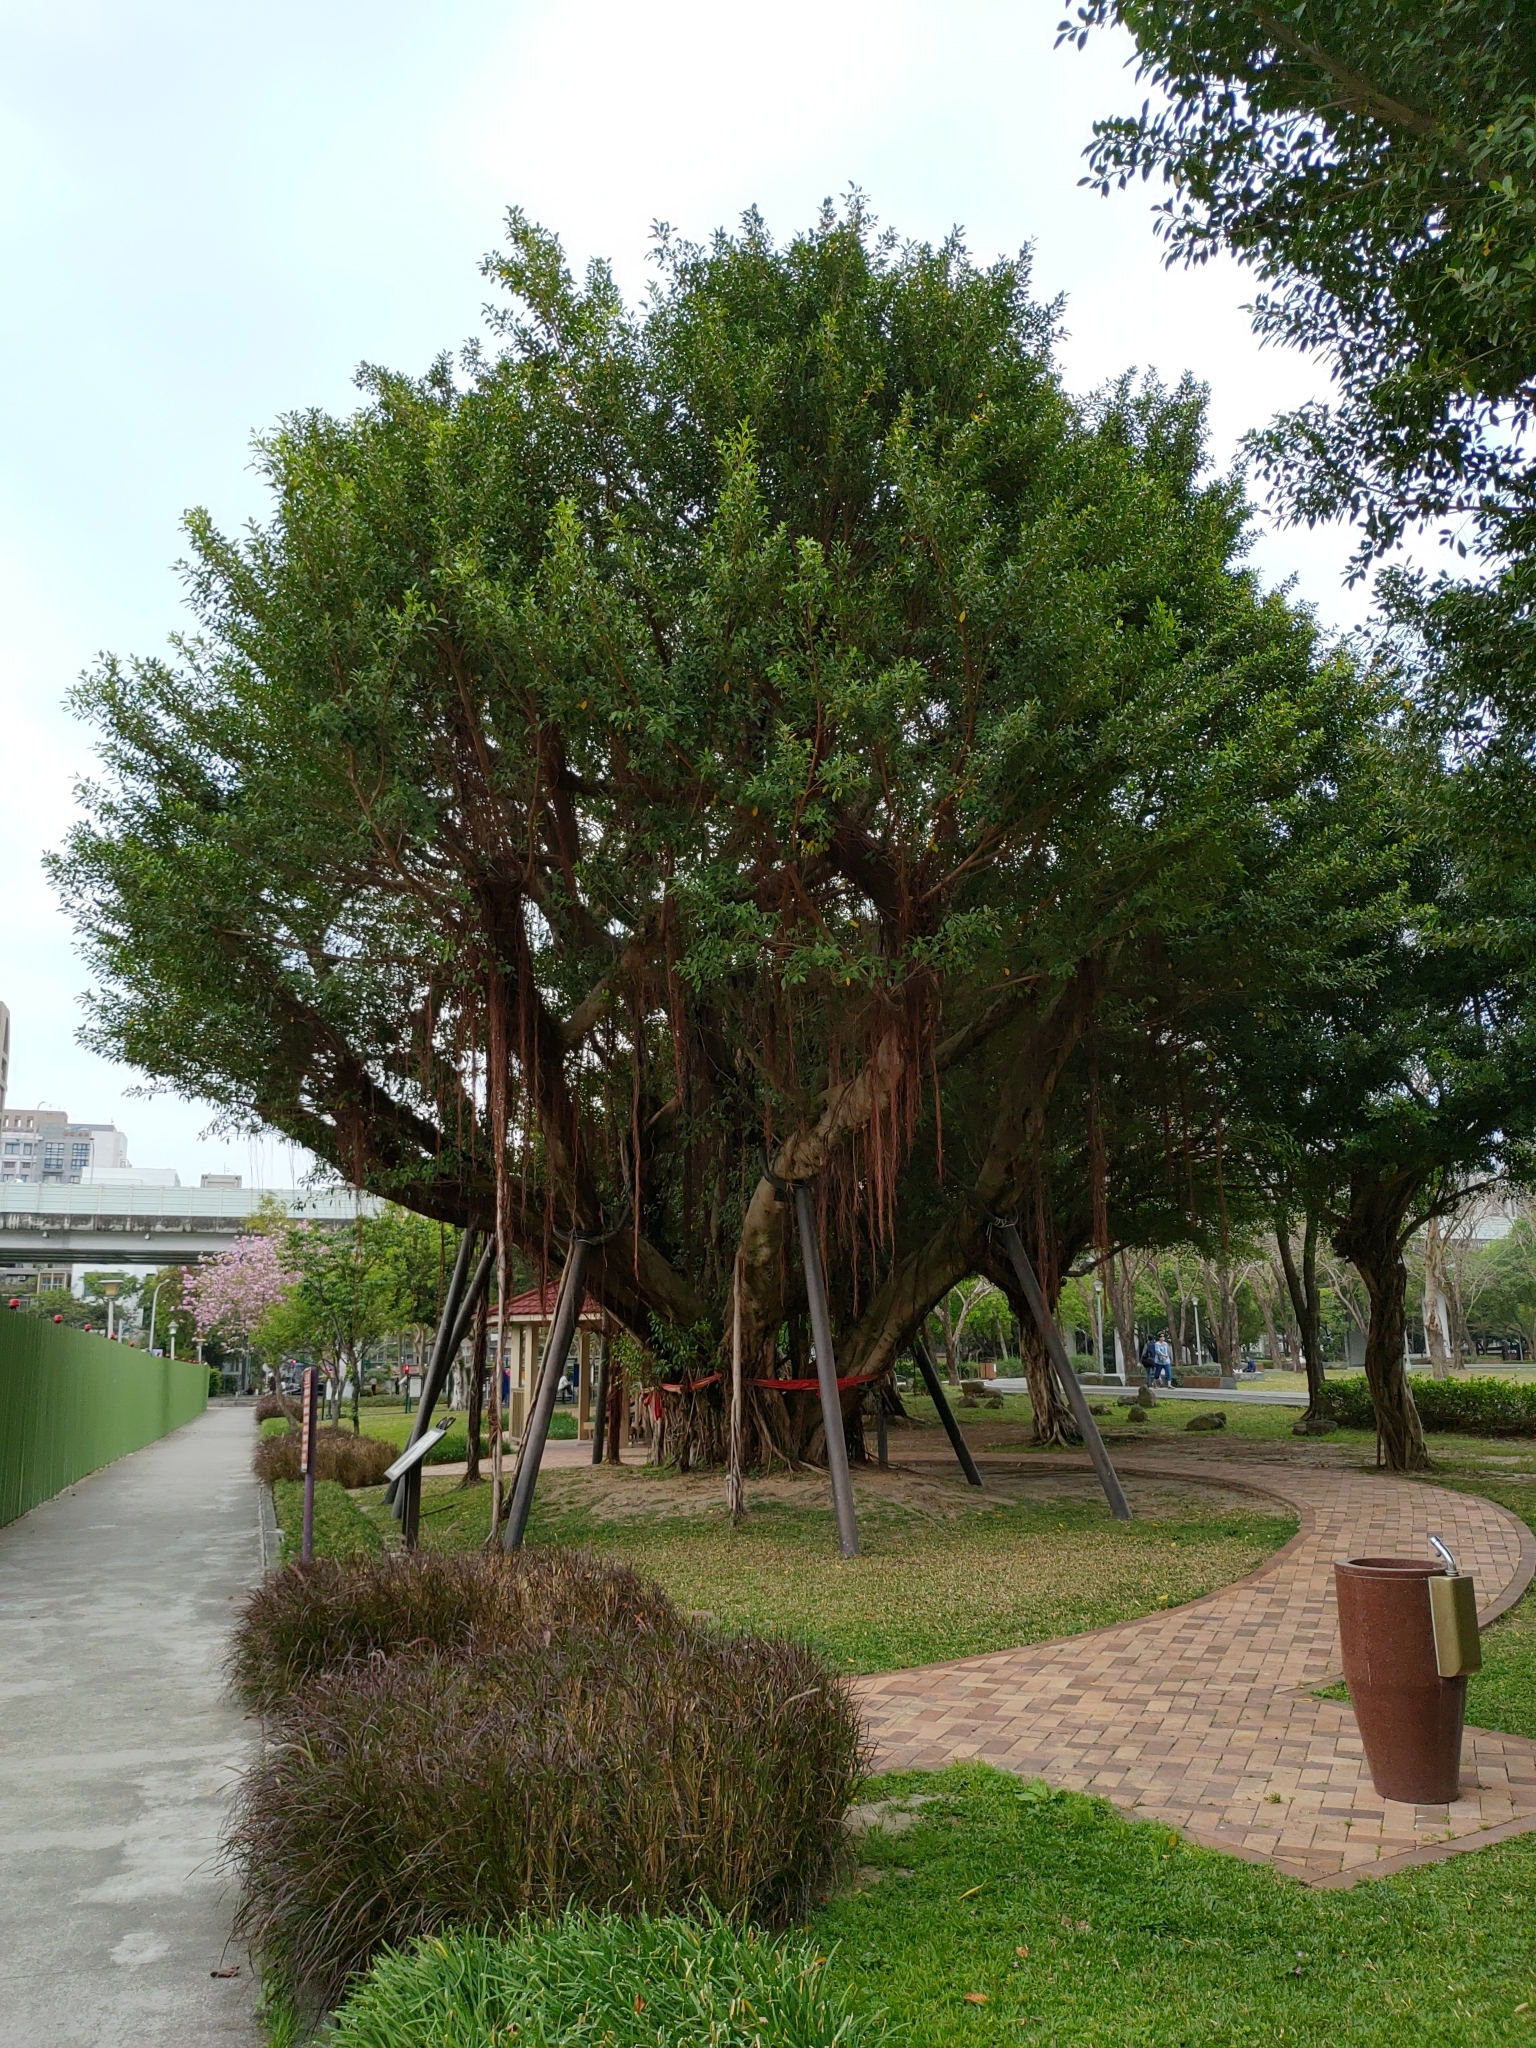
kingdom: Plantae
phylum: Tracheophyta
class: Magnoliopsida
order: Rosales
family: Moraceae
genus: Ficus
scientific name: Ficus microcarpa
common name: Chinese banyan
